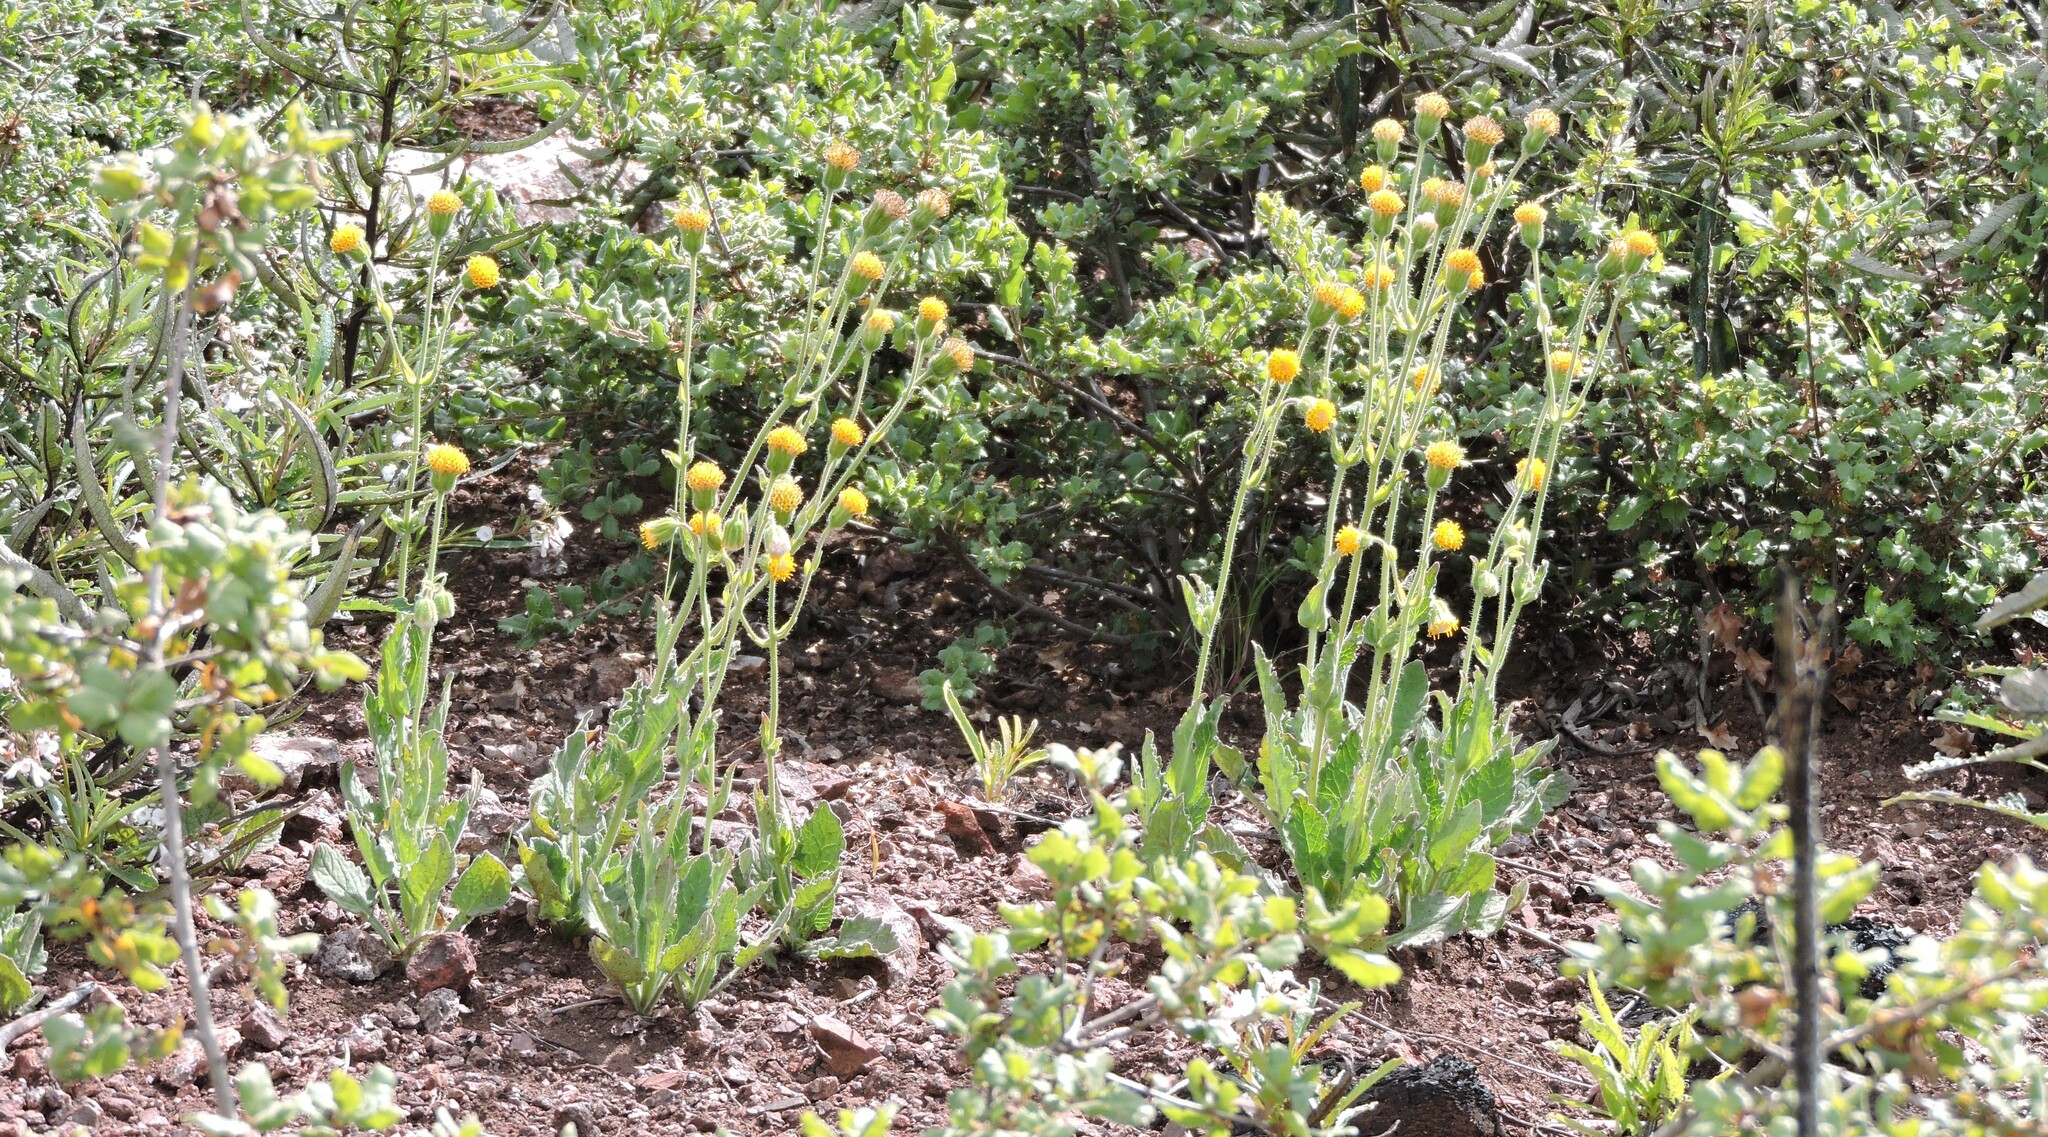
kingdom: Plantae
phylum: Tracheophyta
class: Magnoliopsida
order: Asterales
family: Asteraceae
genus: Arnica
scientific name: Arnica discoidea
